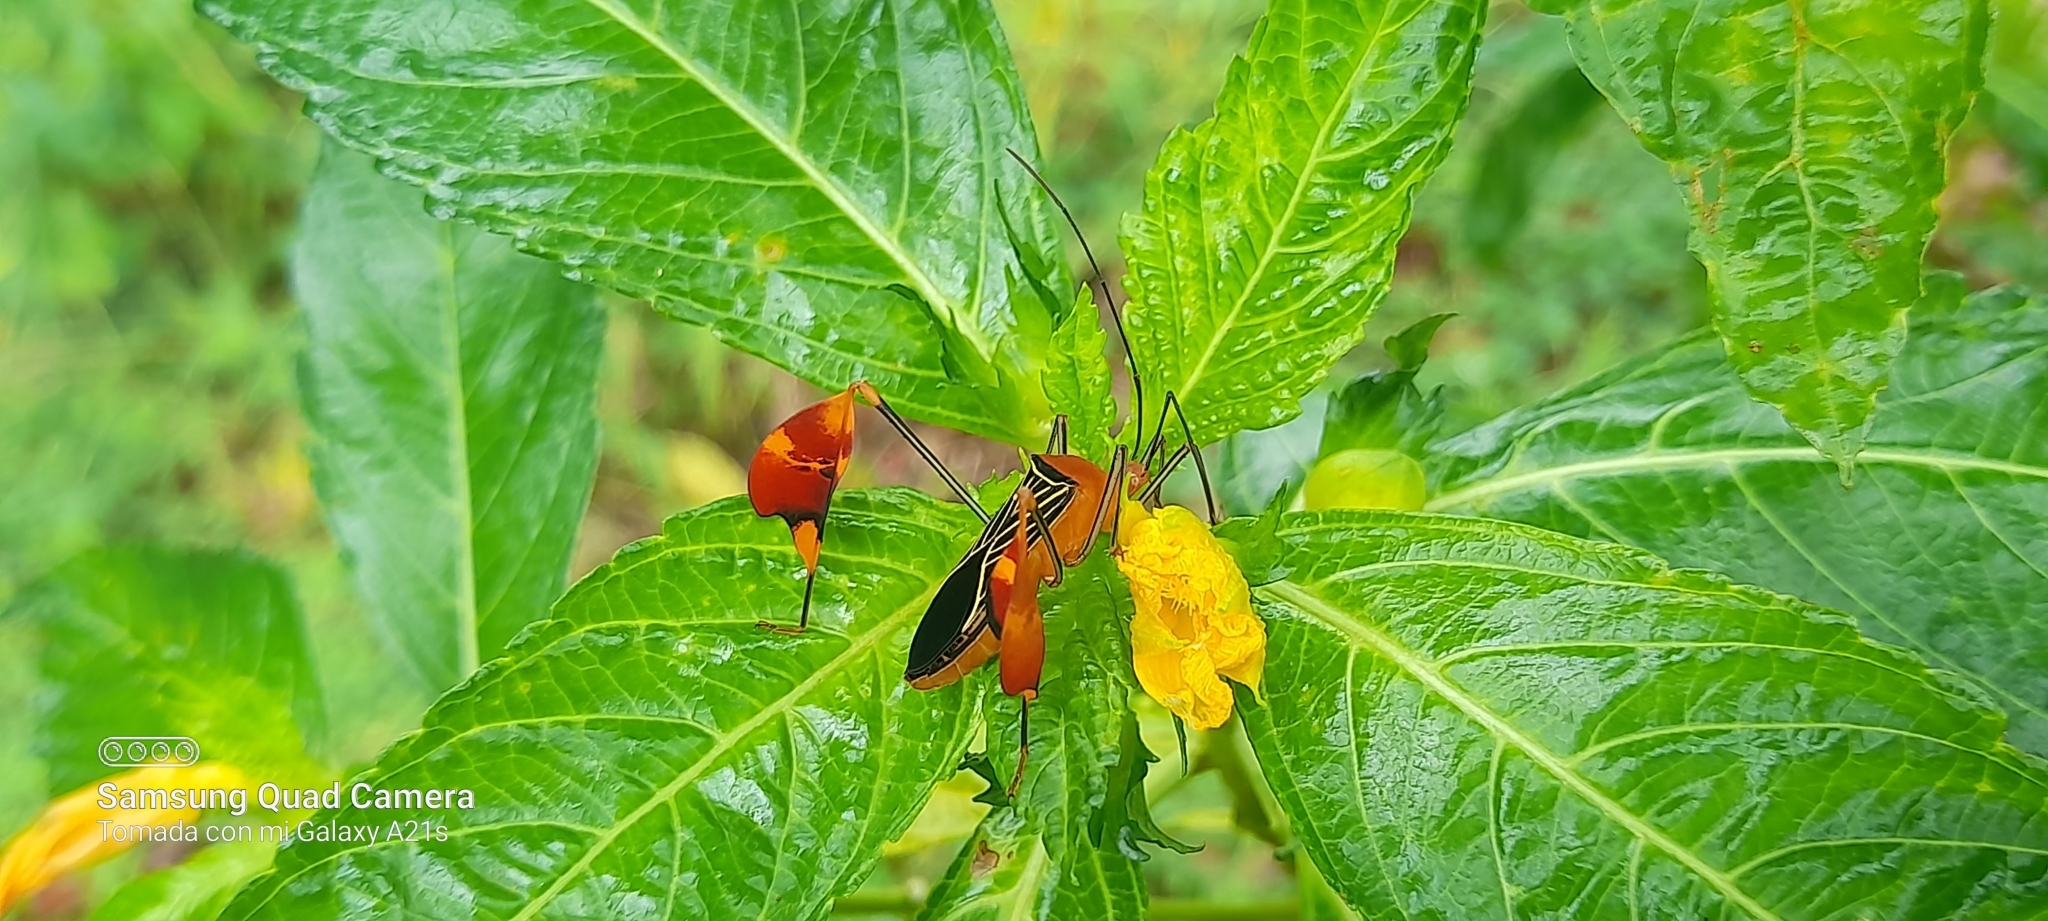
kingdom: Animalia
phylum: Arthropoda
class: Insecta
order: Hemiptera
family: Coreidae
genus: Bitta
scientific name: Bitta
